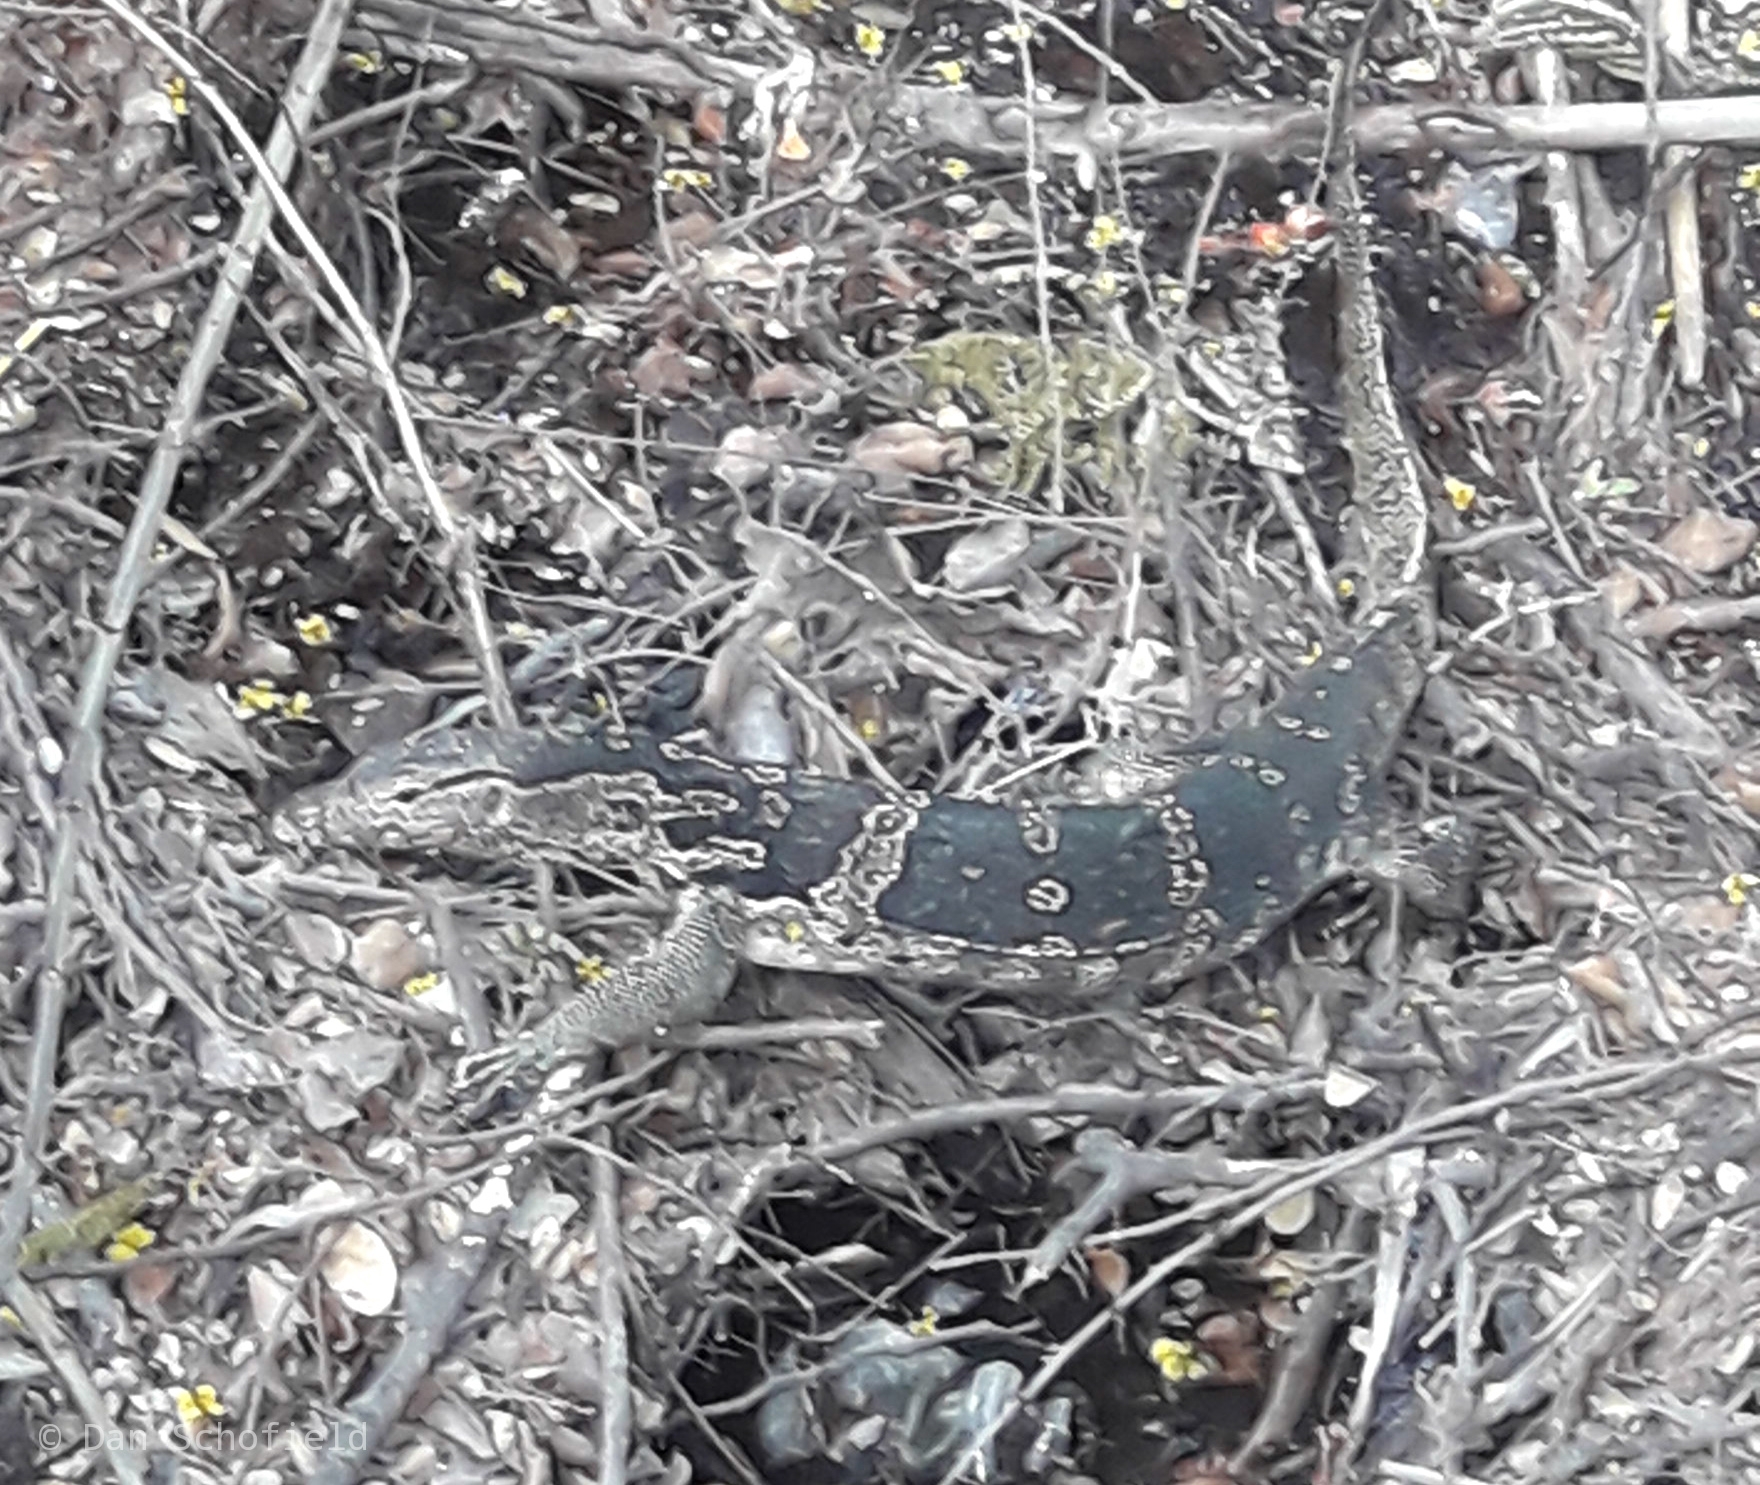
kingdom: Animalia
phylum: Chordata
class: Squamata
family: Varanidae
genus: Varanus
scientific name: Varanus salvator
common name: Common water monitor
